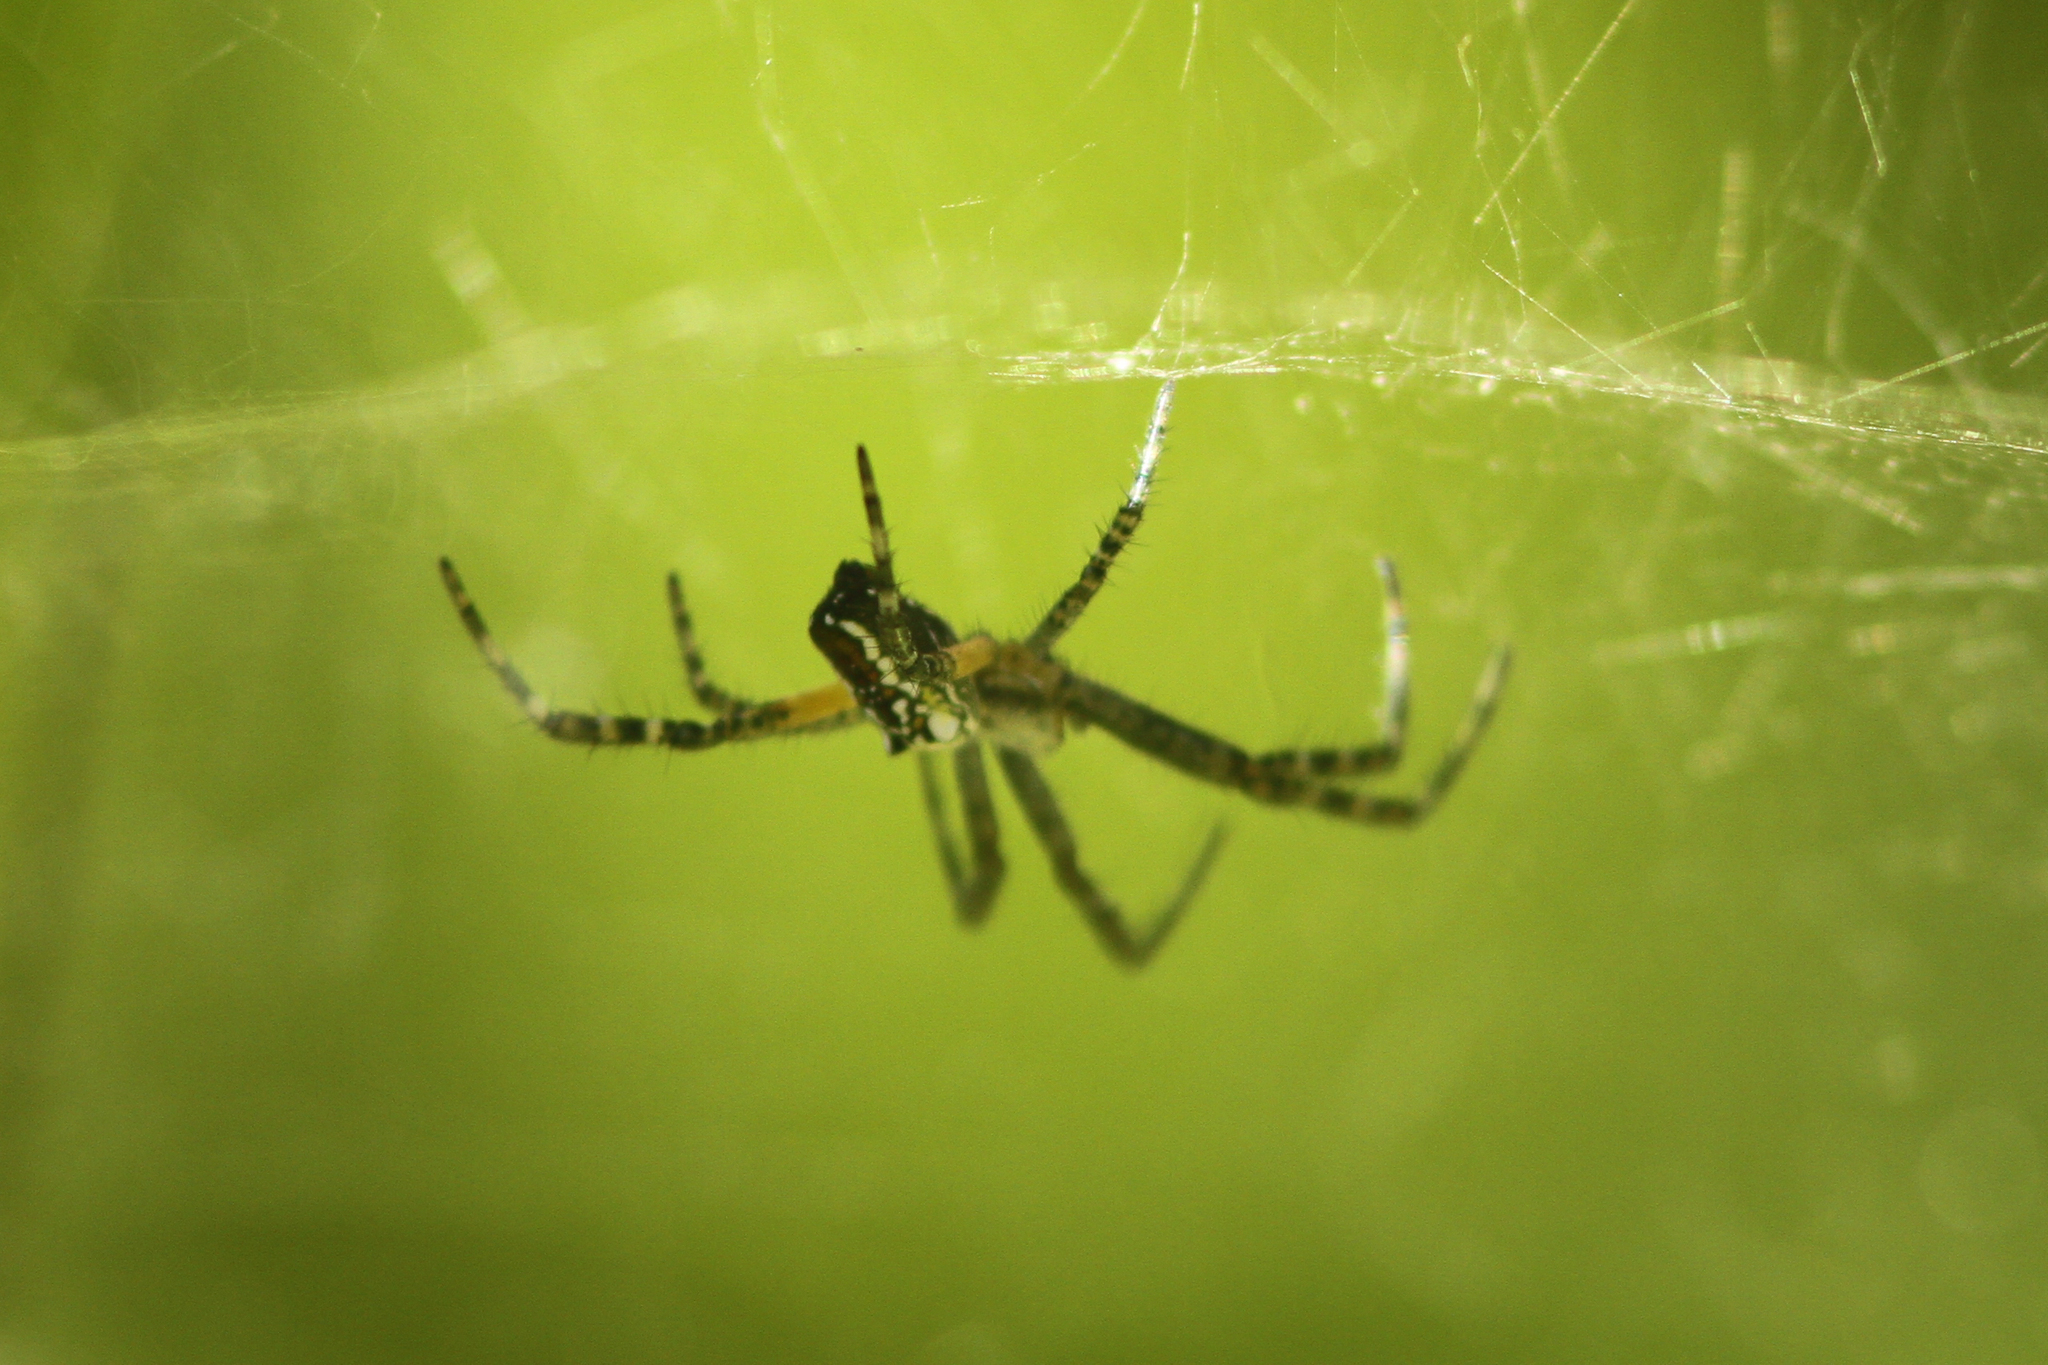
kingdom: Chromista
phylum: Ochrophyta
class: Dictyochophyceae
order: Pedinellales
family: Cyrtophoraceae
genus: Cyrtophora
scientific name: Cyrtophora moluccensis
